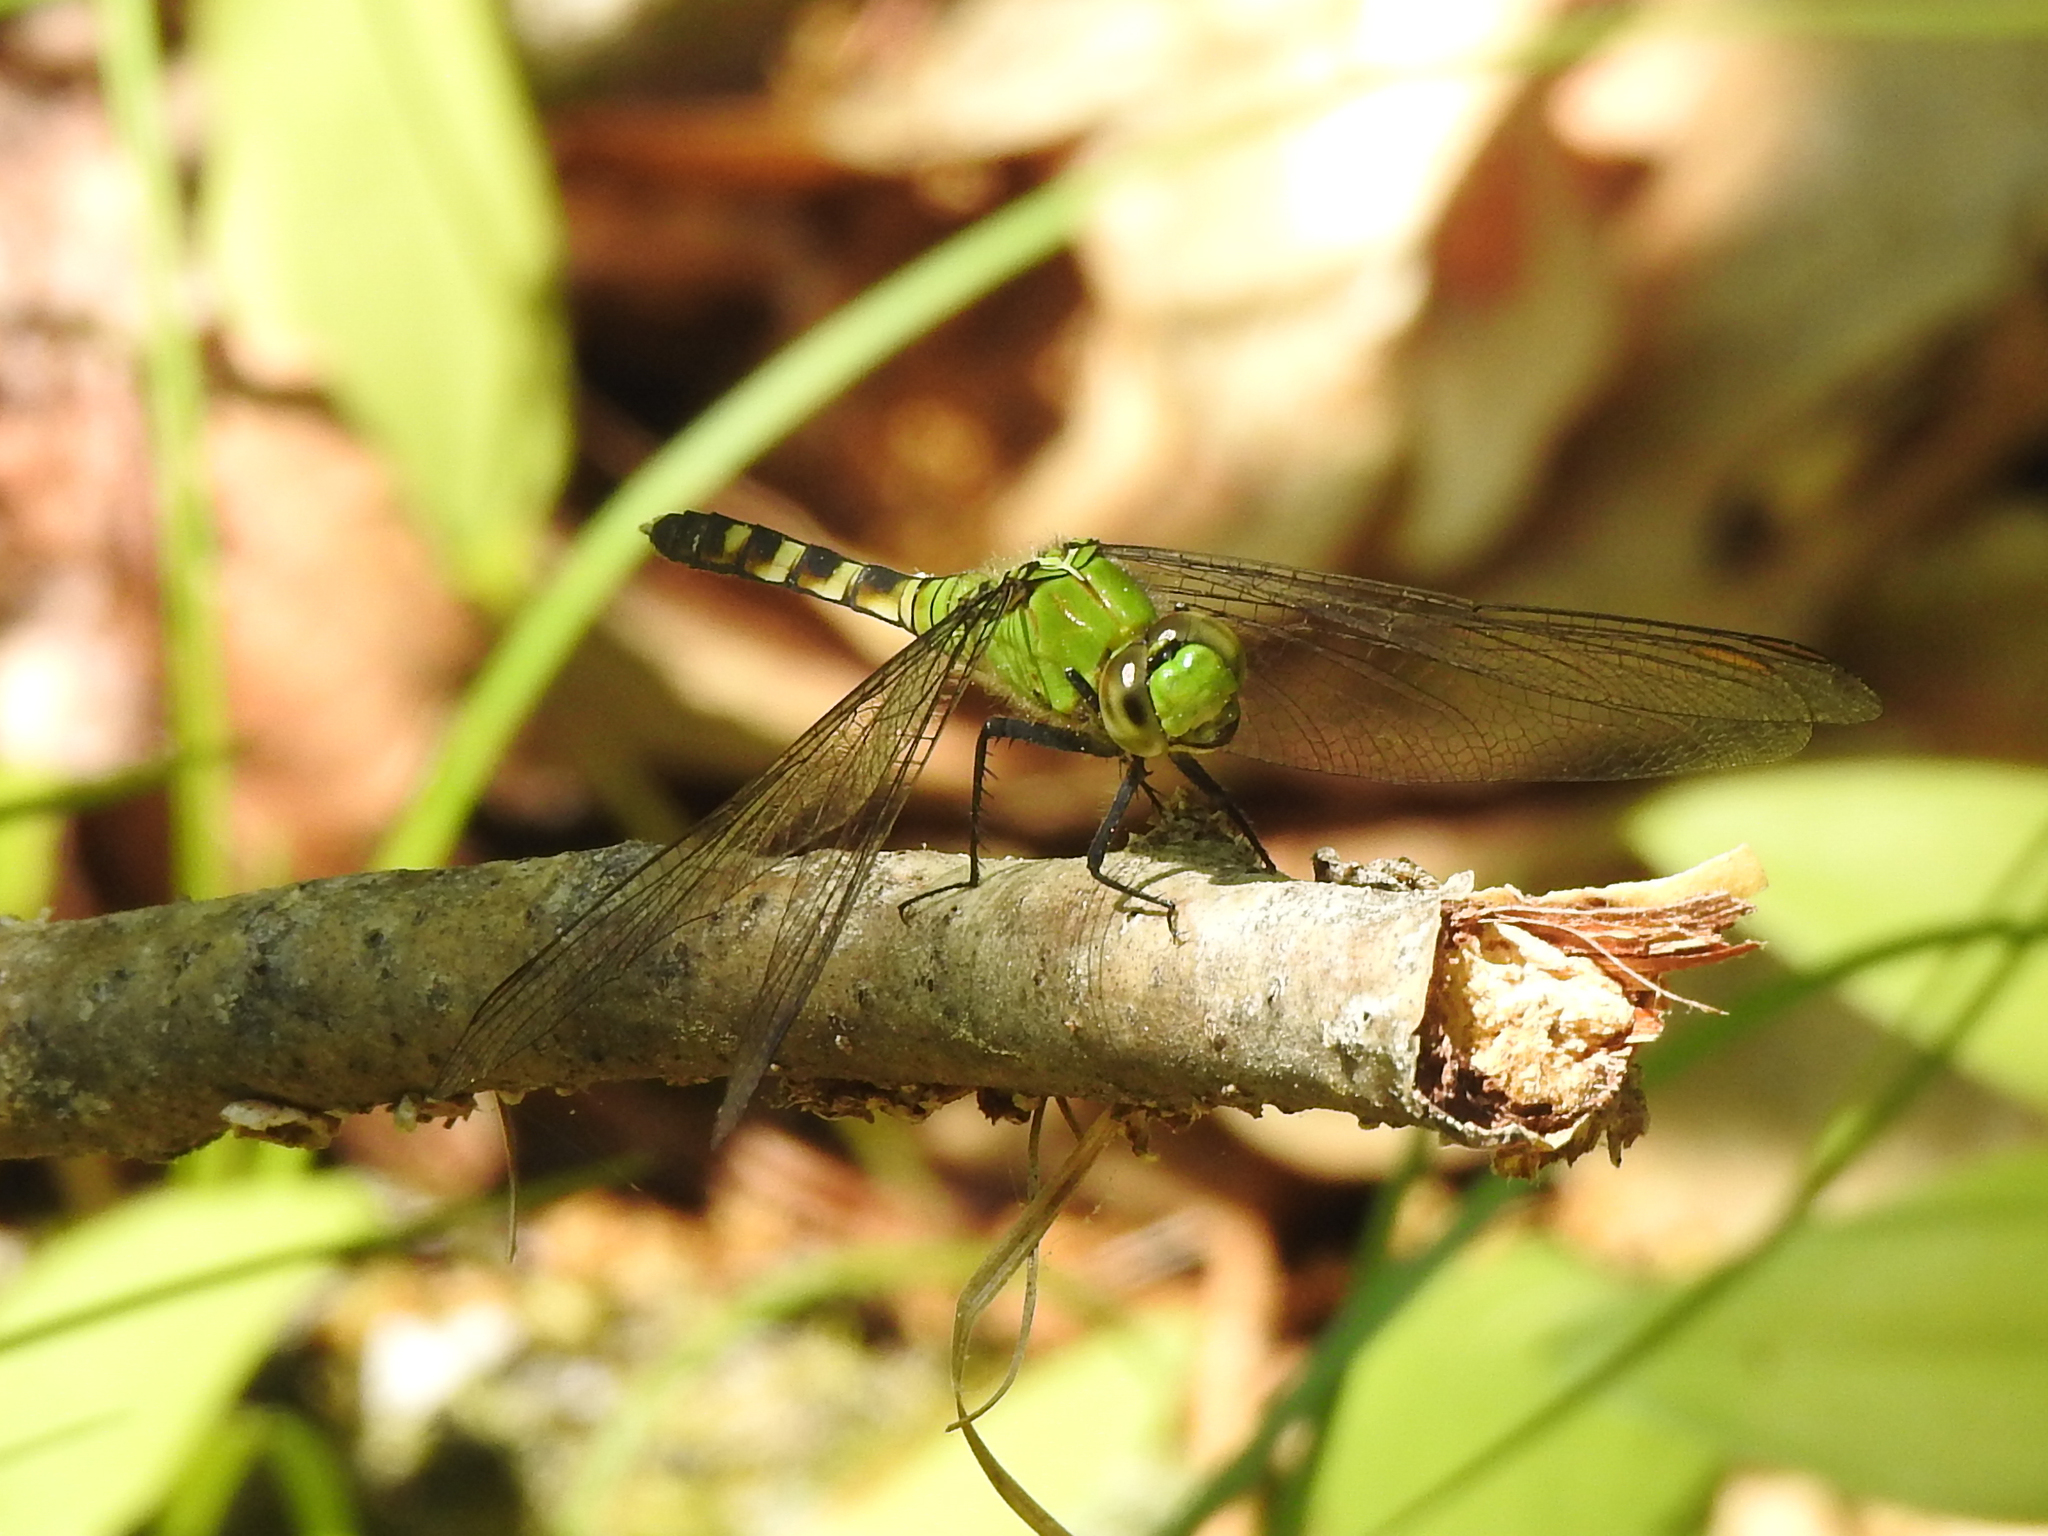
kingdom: Animalia
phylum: Arthropoda
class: Insecta
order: Odonata
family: Libellulidae
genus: Erythemis
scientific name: Erythemis simplicicollis
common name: Eastern pondhawk
